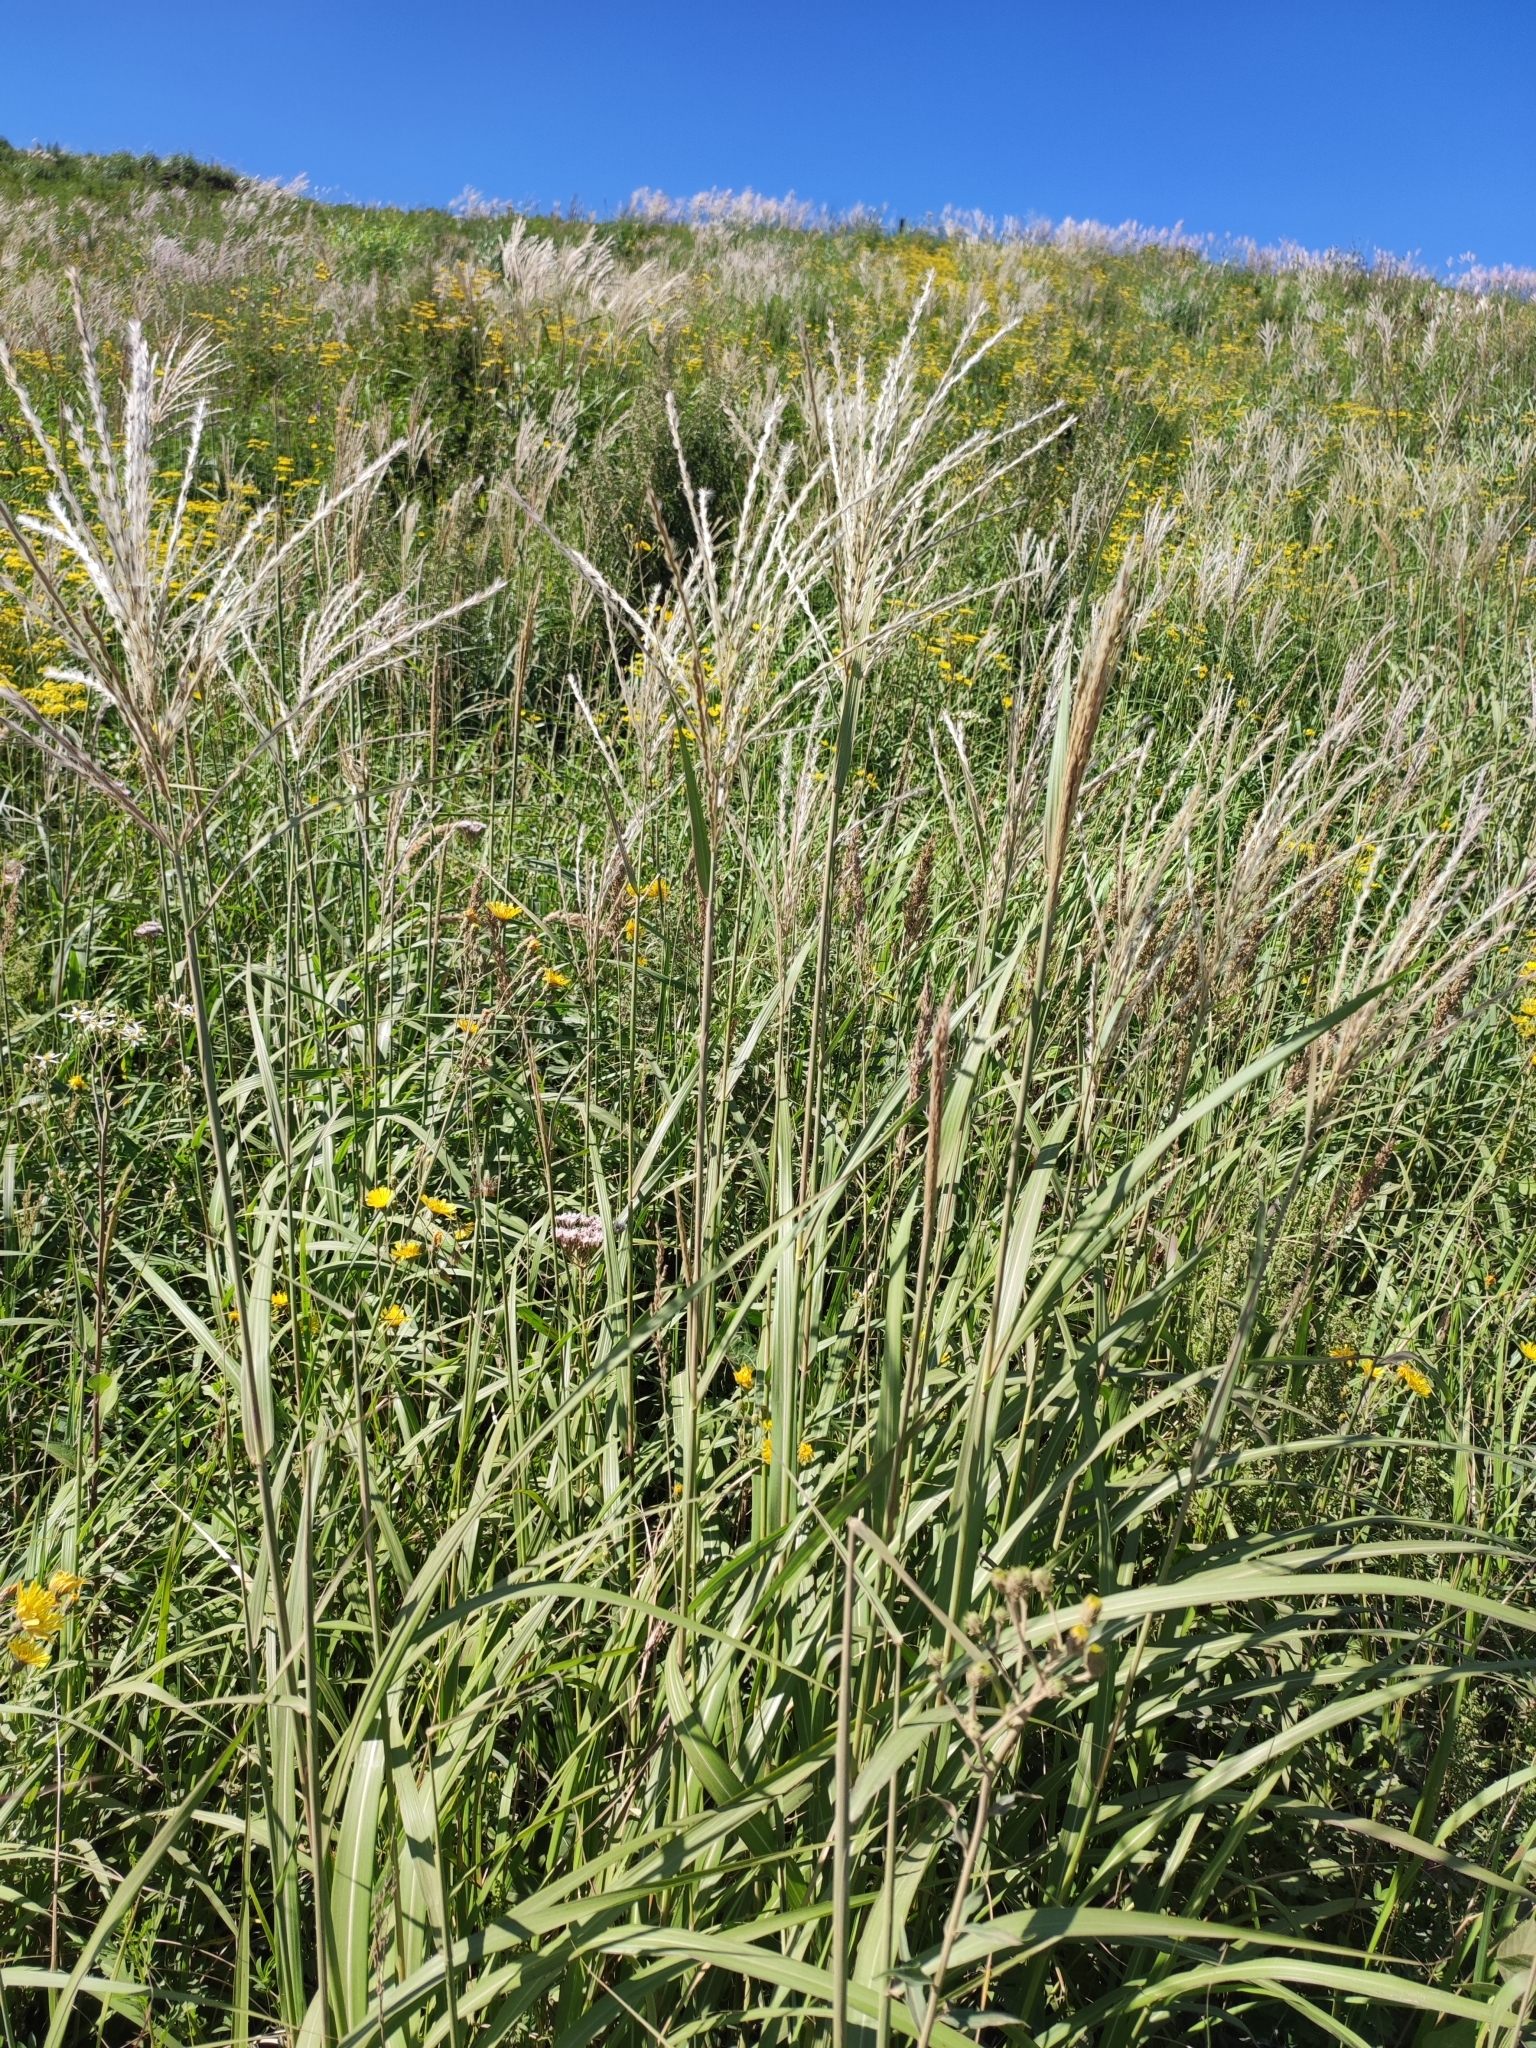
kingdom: Plantae
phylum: Tracheophyta
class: Liliopsida
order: Poales
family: Poaceae
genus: Miscanthus
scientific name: Miscanthus sinensis
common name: Chinese silvergrass
